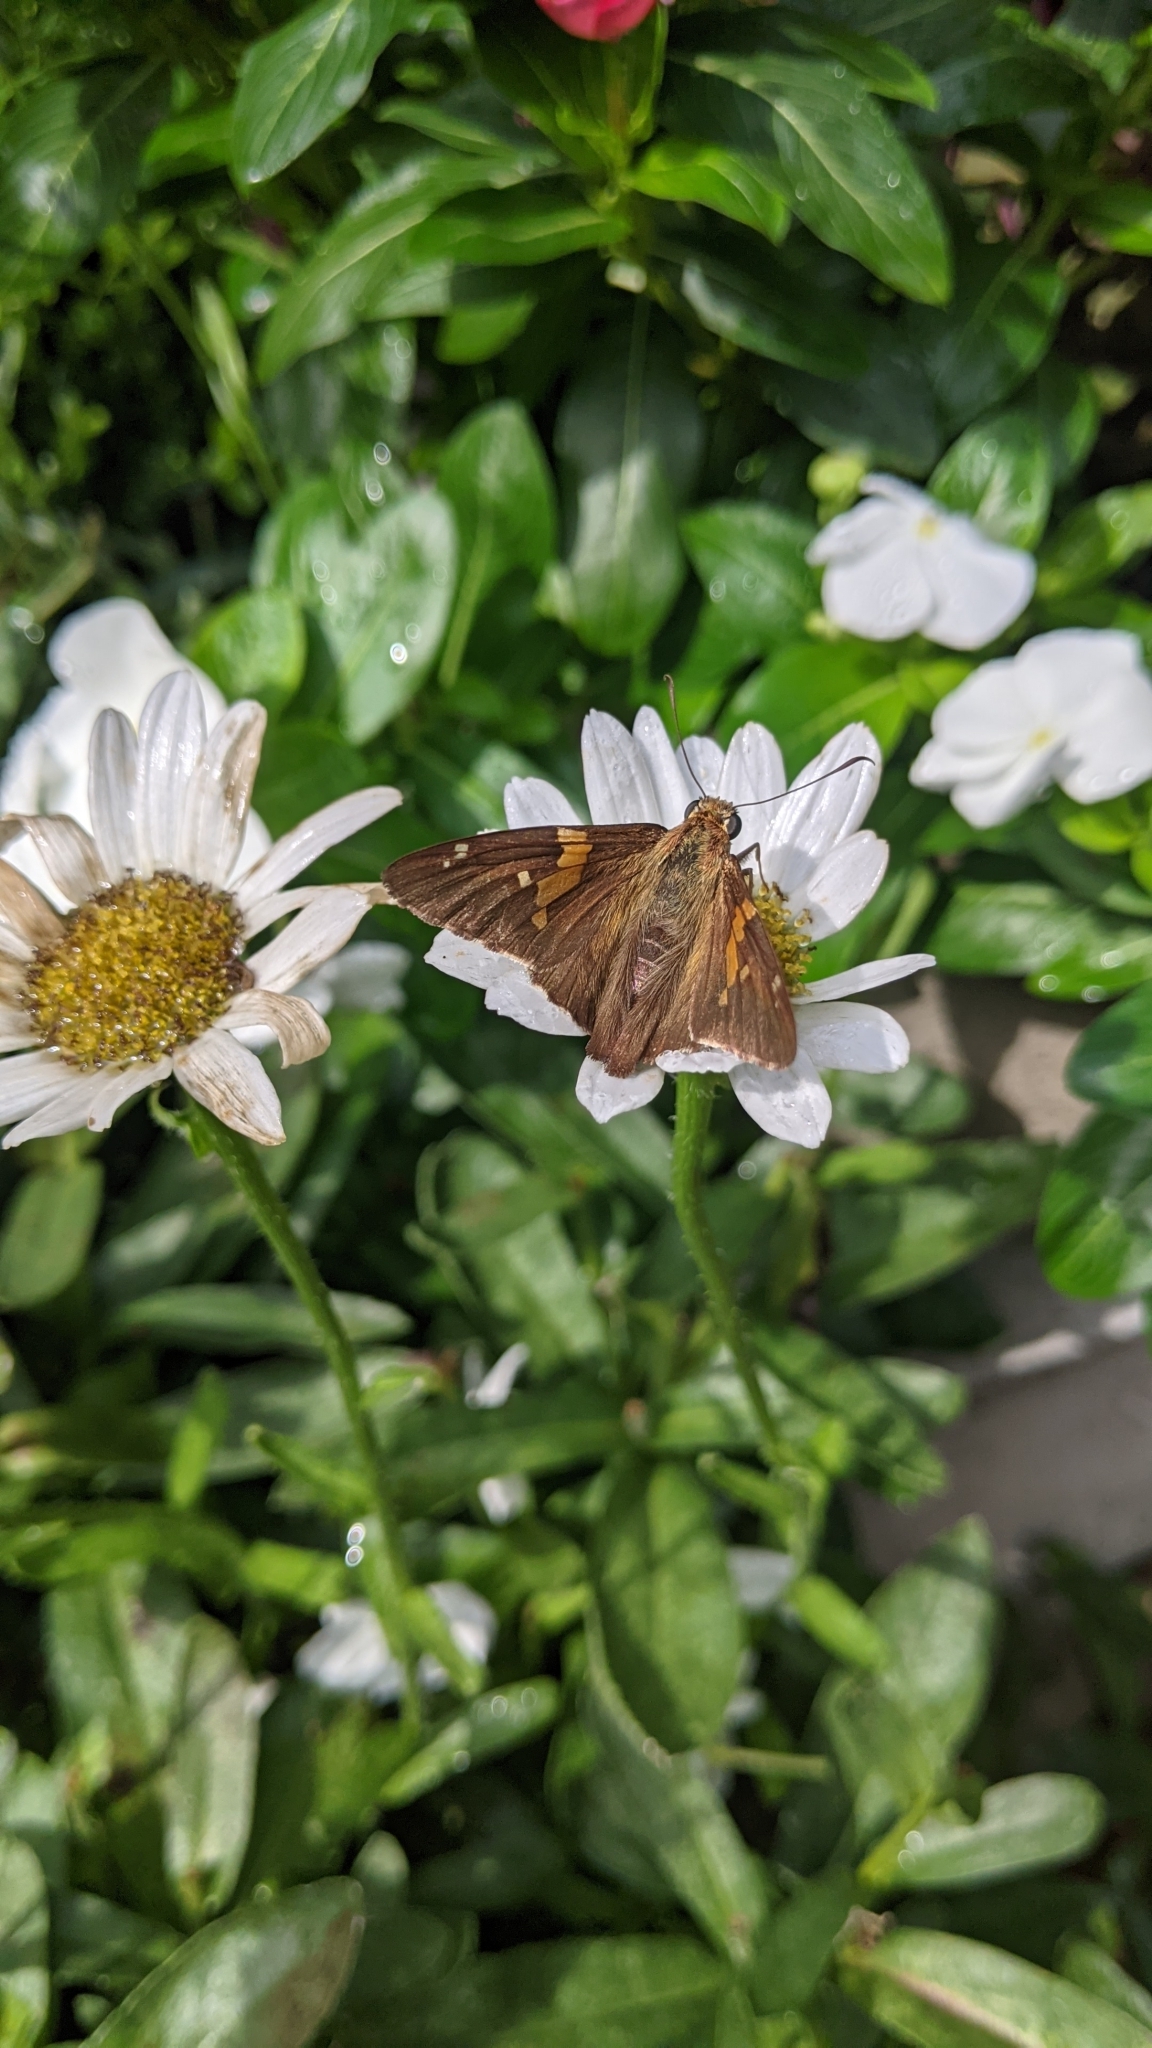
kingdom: Animalia
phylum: Arthropoda
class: Insecta
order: Lepidoptera
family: Hesperiidae
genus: Epargyreus
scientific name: Epargyreus clarus
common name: Silver-spotted skipper
